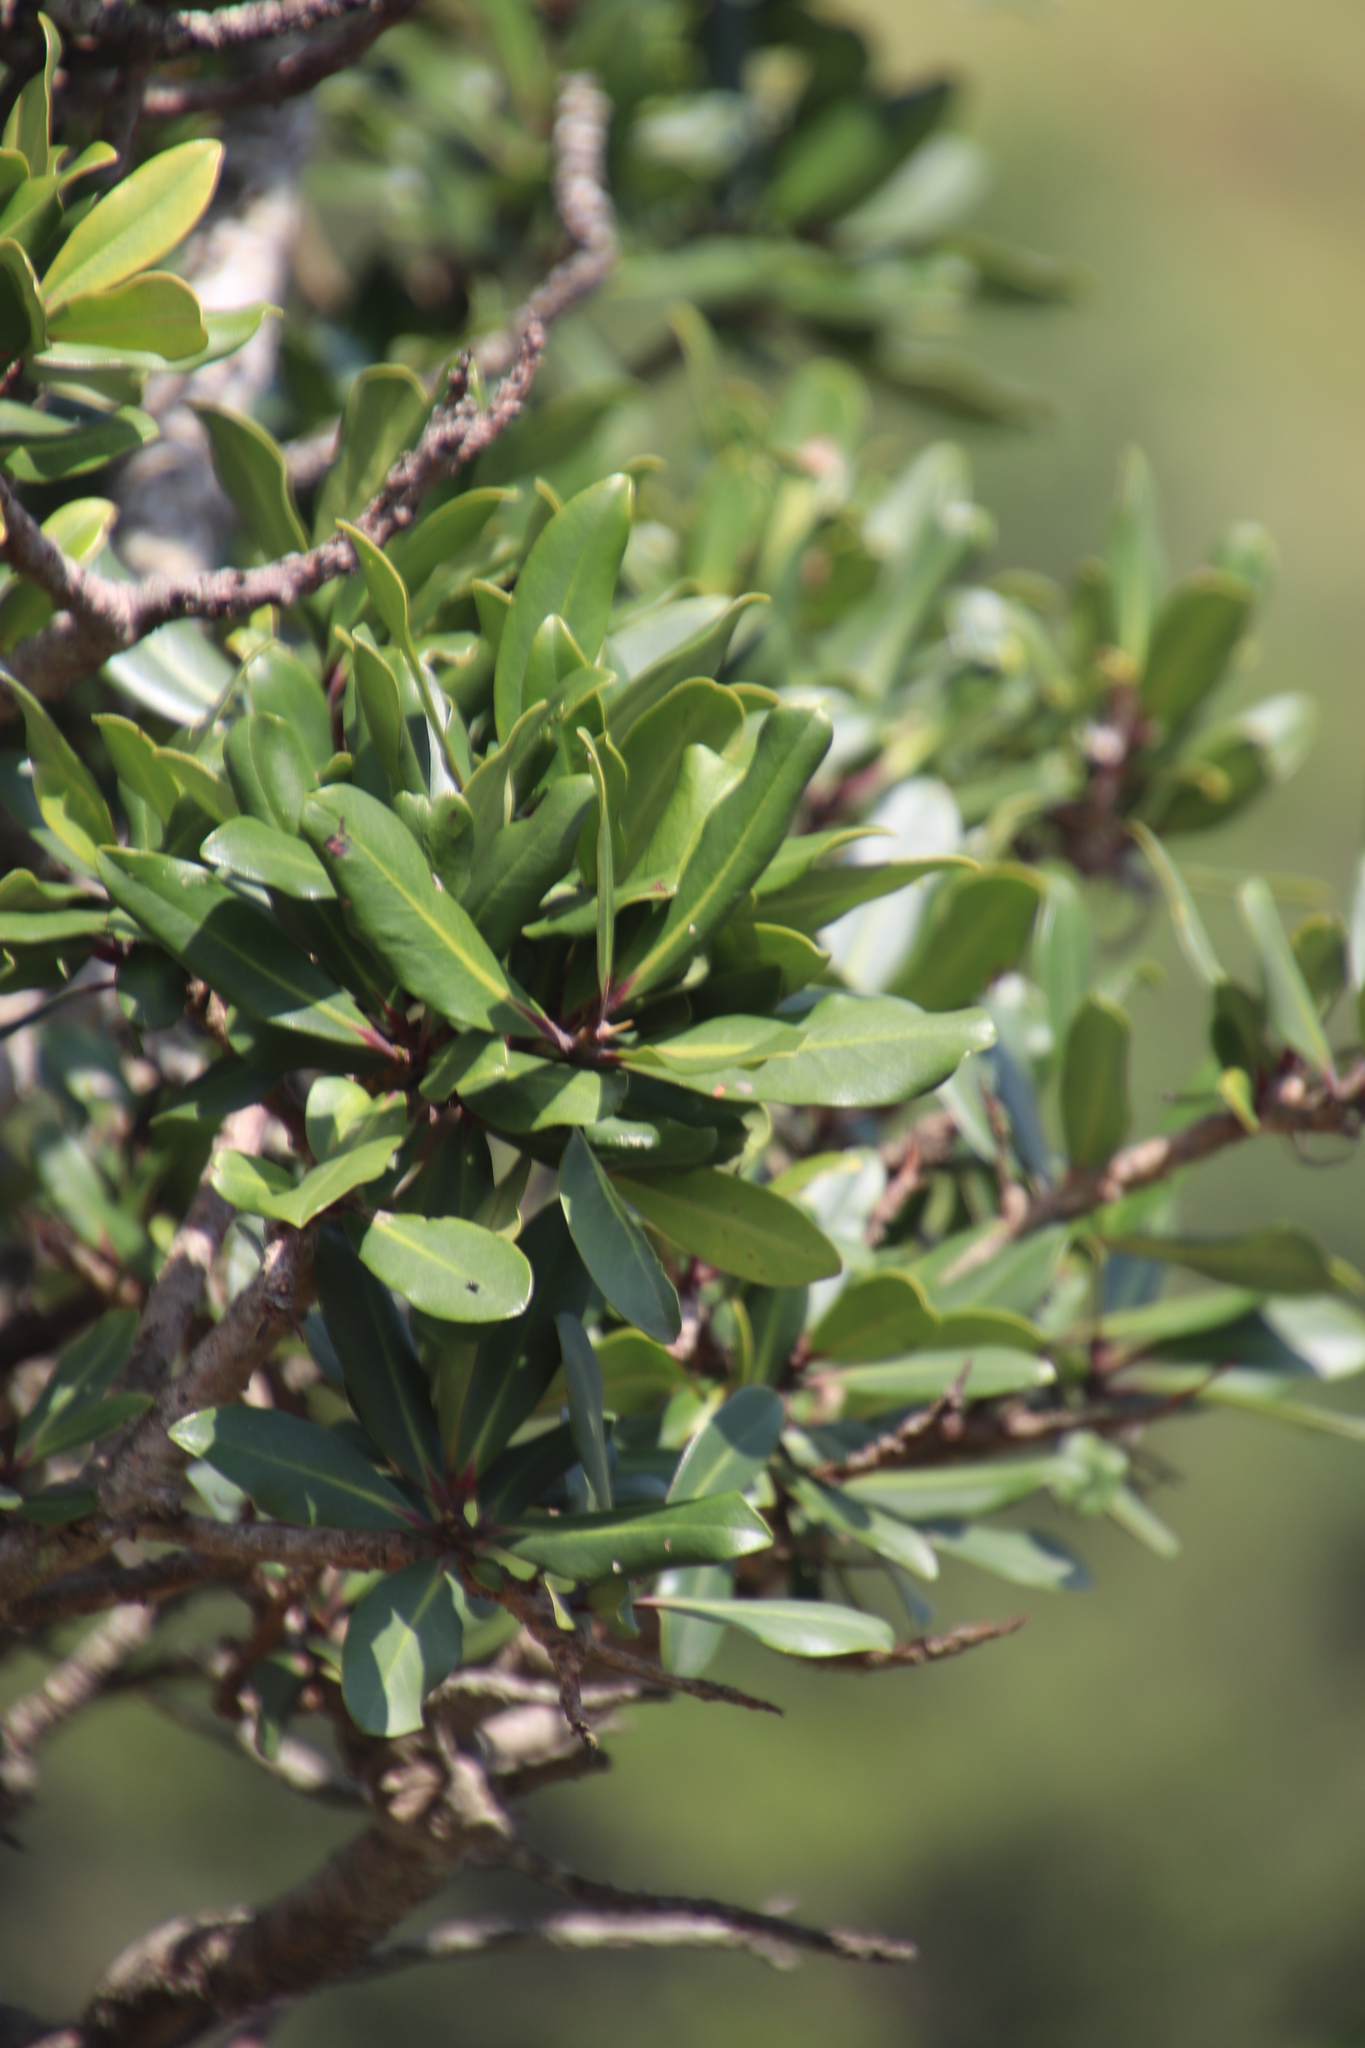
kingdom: Plantae
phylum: Tracheophyta
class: Magnoliopsida
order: Ericales
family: Primulaceae
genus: Myrsine
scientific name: Myrsine melanophloeos
